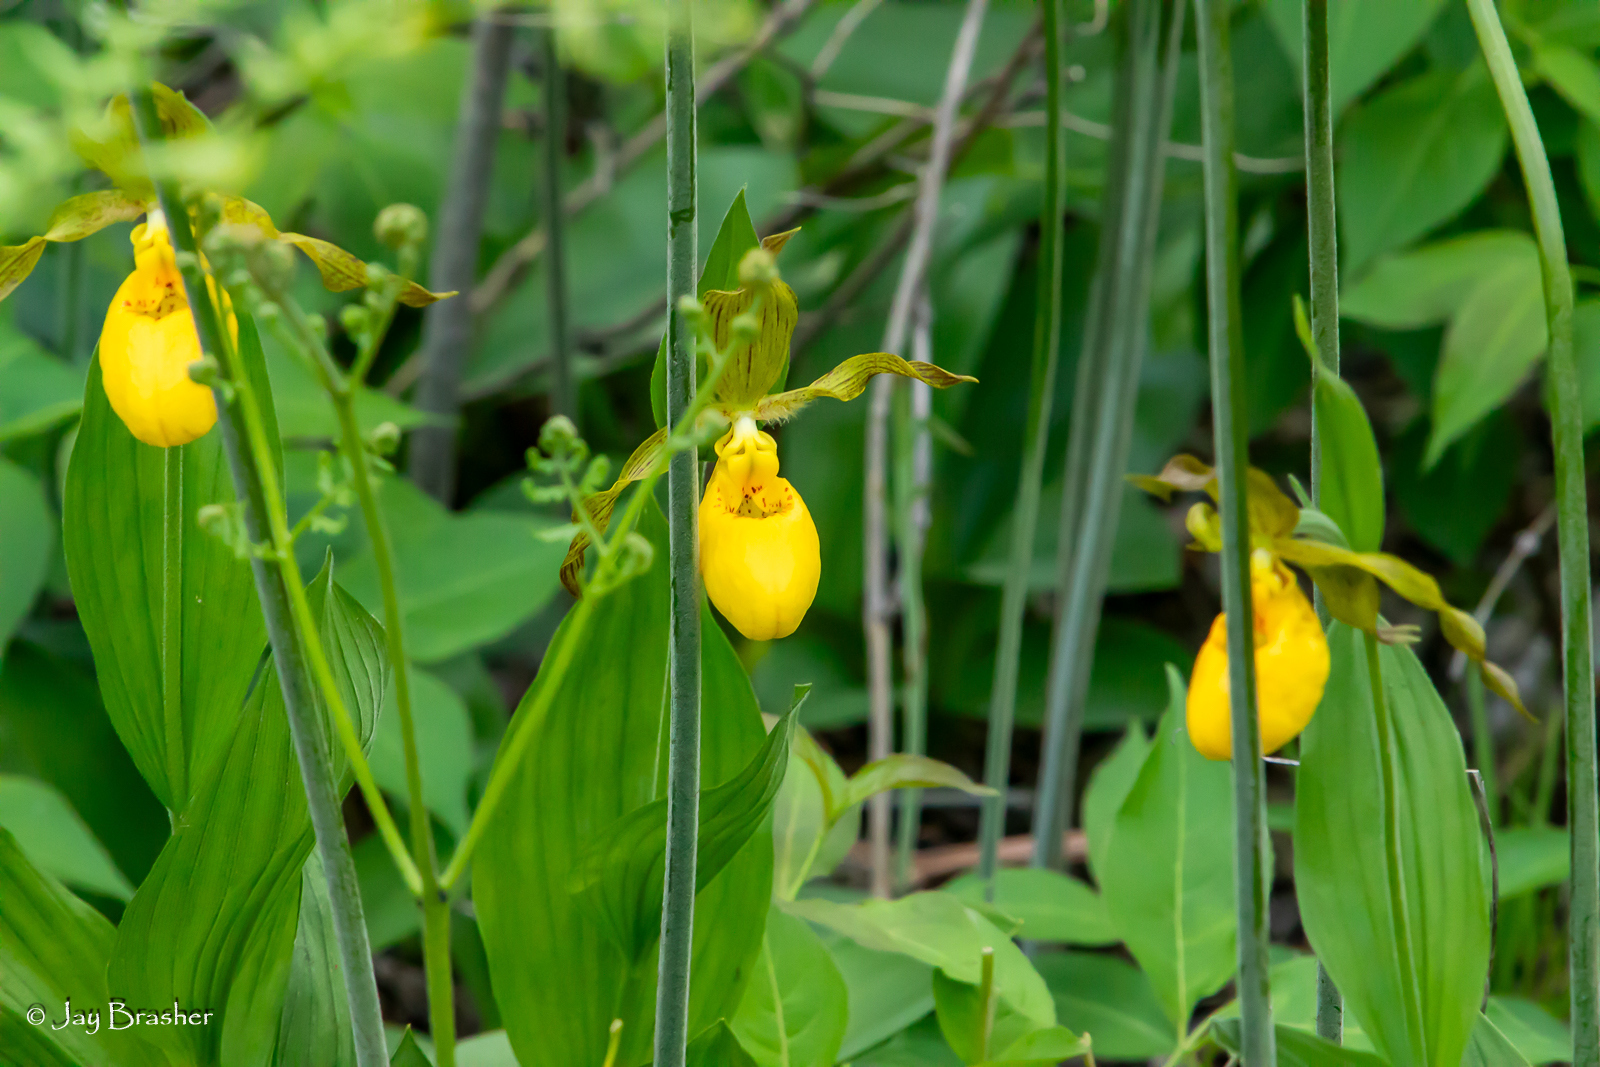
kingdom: Plantae
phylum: Tracheophyta
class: Liliopsida
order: Asparagales
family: Orchidaceae
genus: Cypripedium
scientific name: Cypripedium parviflorum
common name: American yellow lady's-slipper
